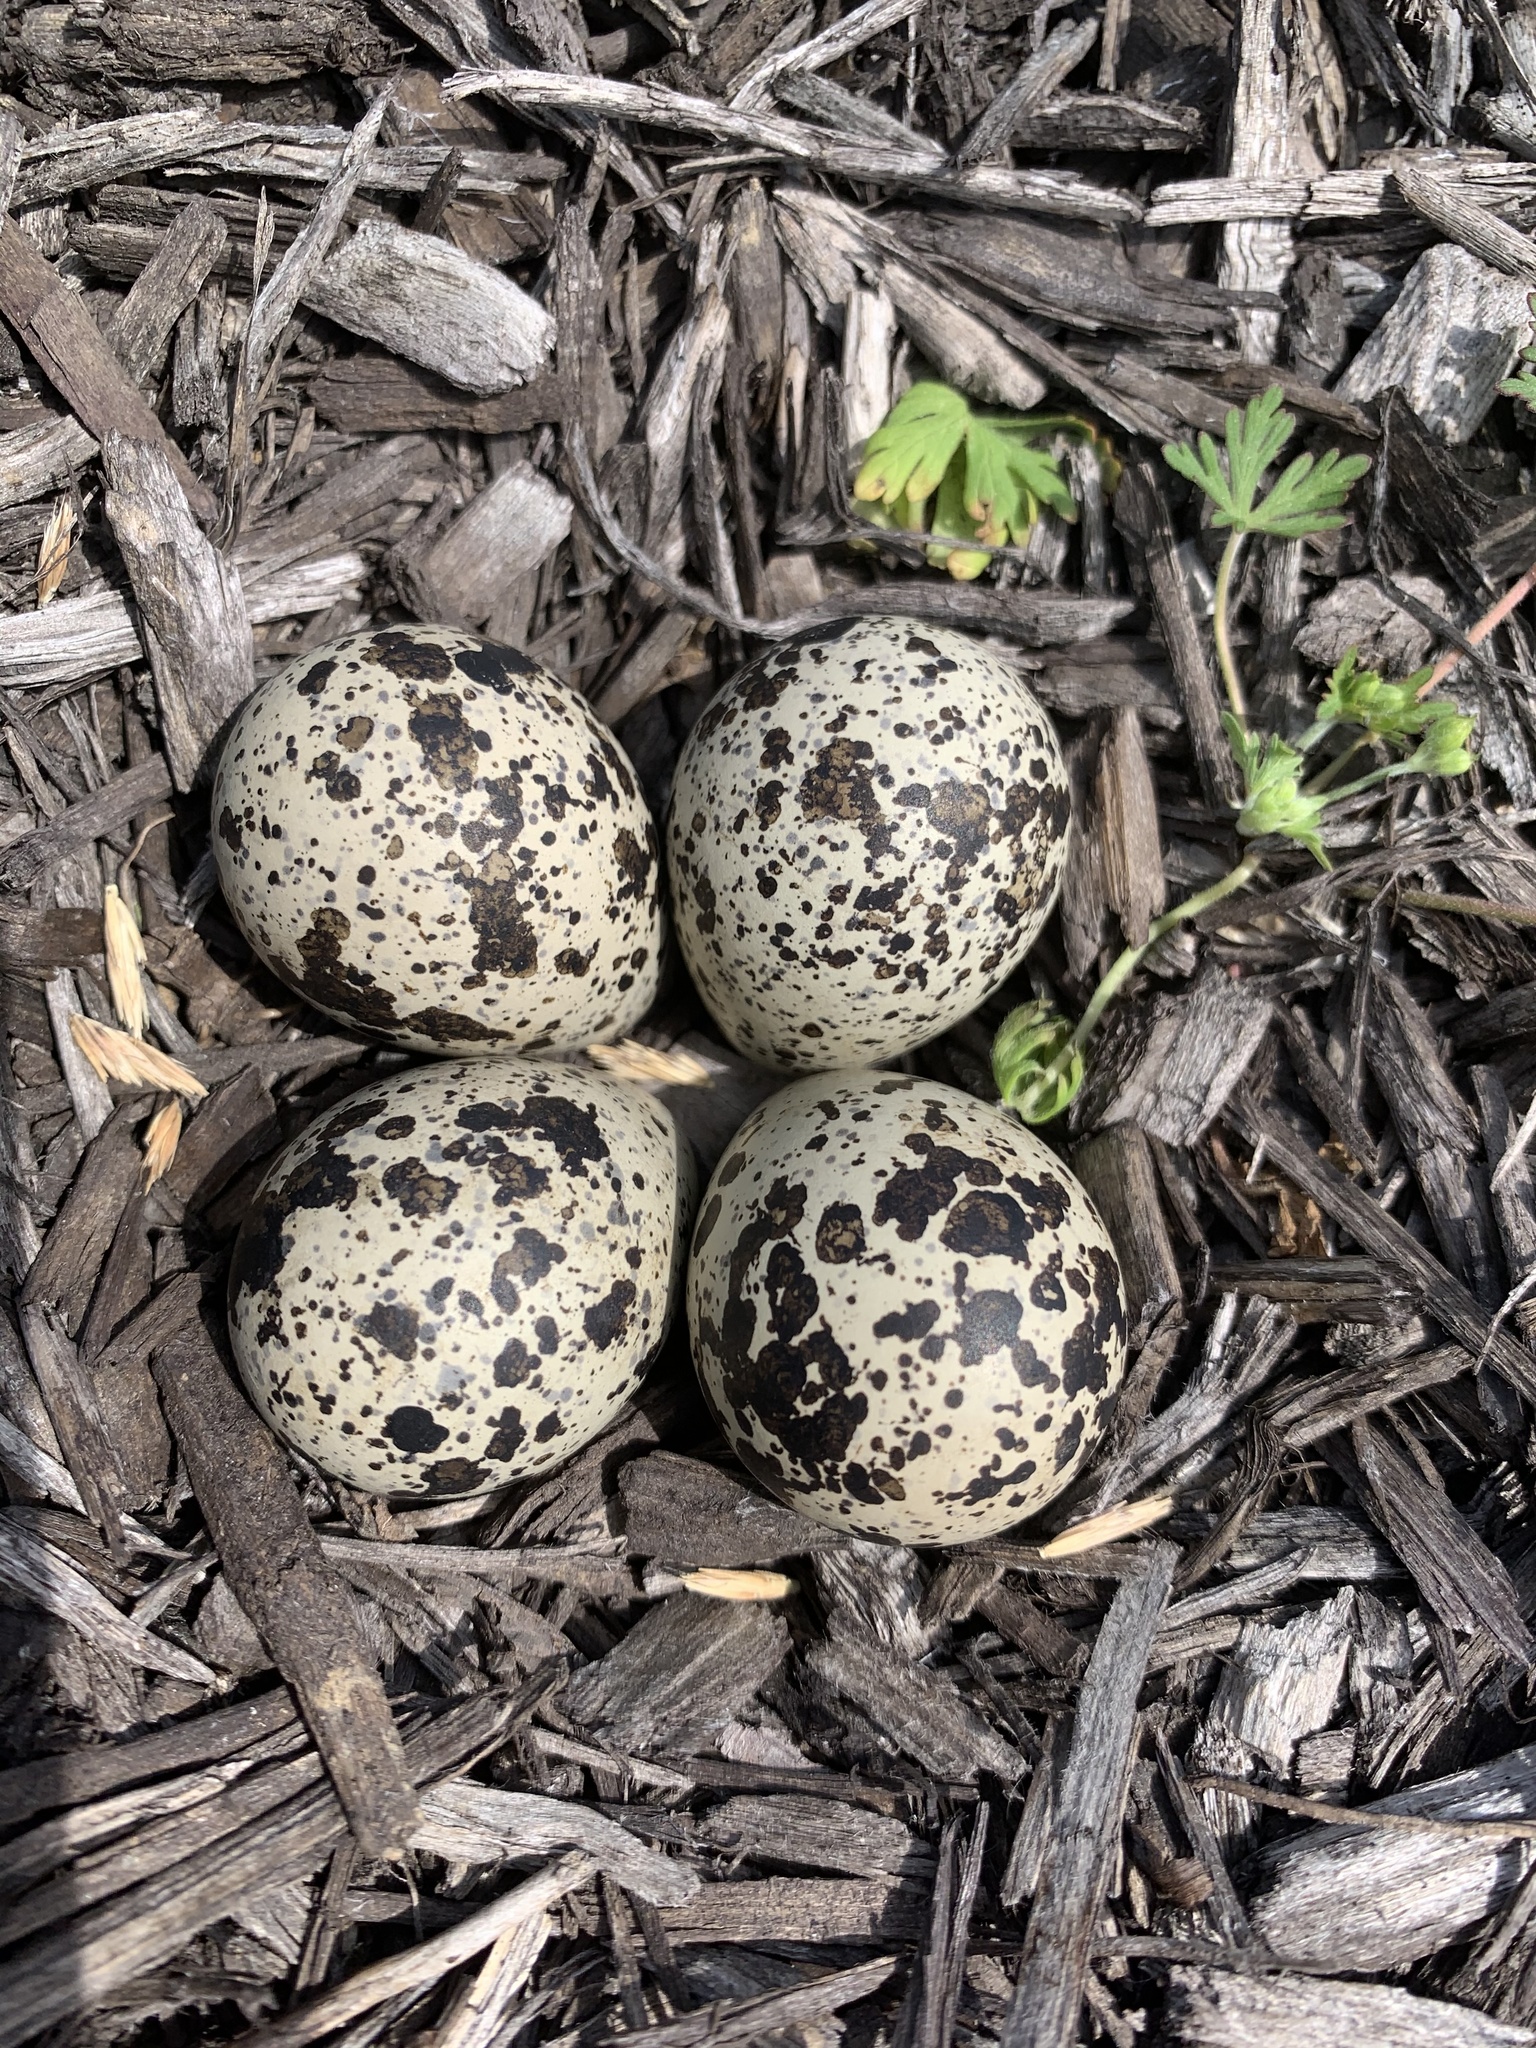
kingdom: Animalia
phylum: Chordata
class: Aves
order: Charadriiformes
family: Charadriidae
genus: Charadrius
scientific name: Charadrius vociferus
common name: Killdeer
